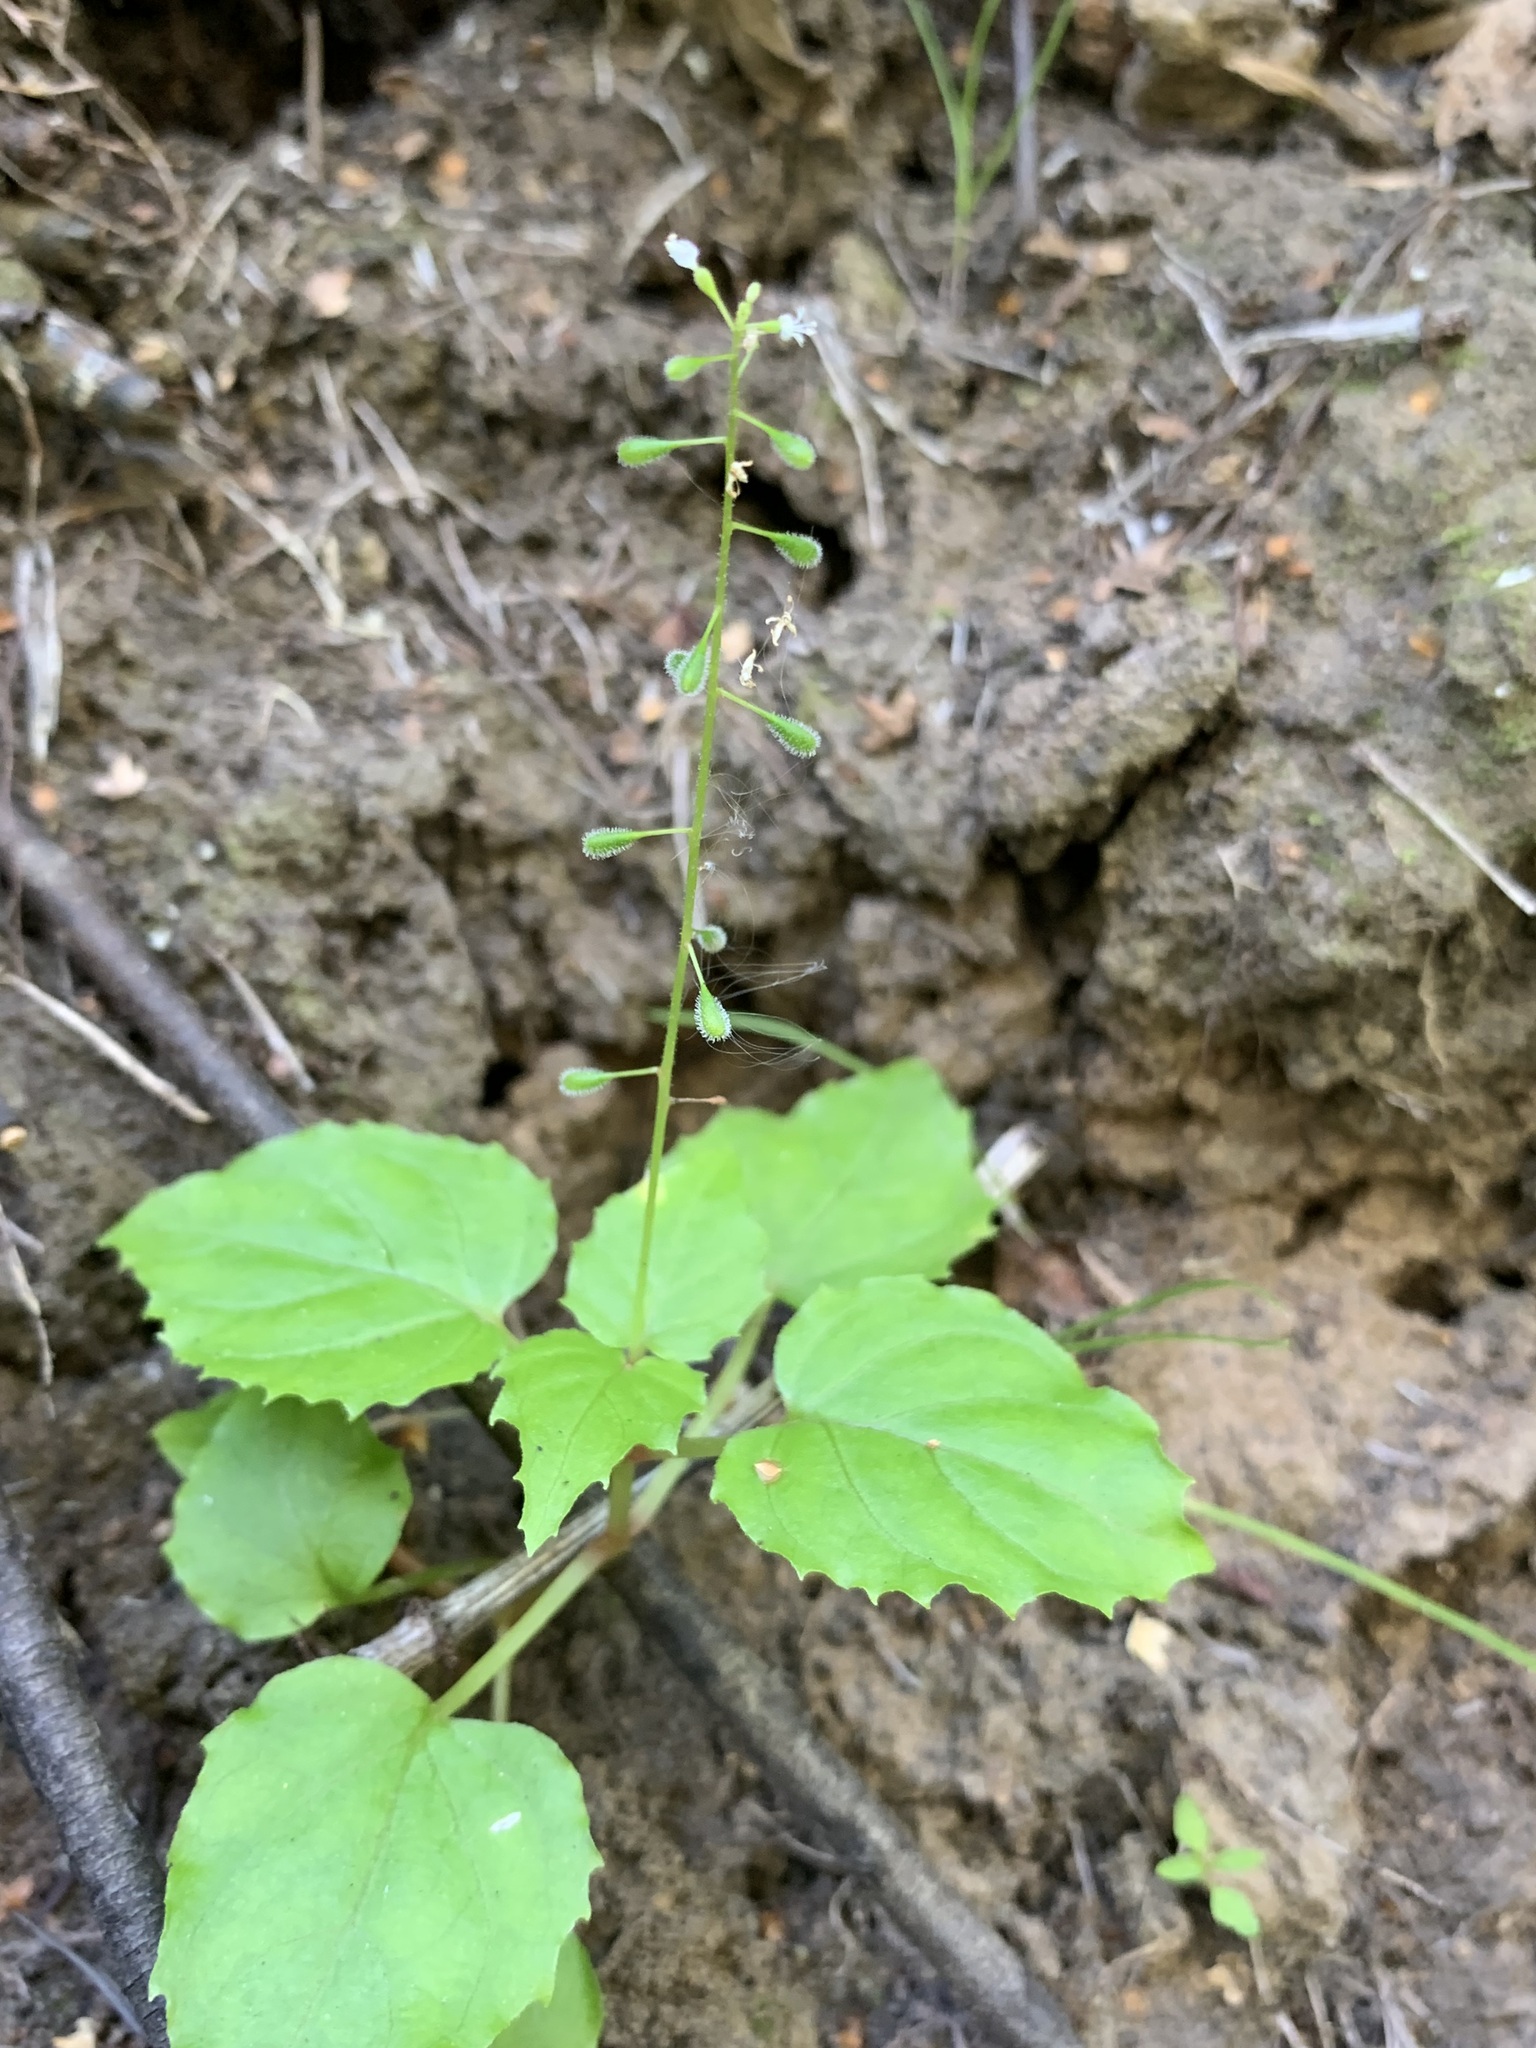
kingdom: Plantae
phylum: Tracheophyta
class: Magnoliopsida
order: Myrtales
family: Onagraceae
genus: Circaea
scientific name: Circaea alpina
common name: Alpine enchanter's-nightshade
